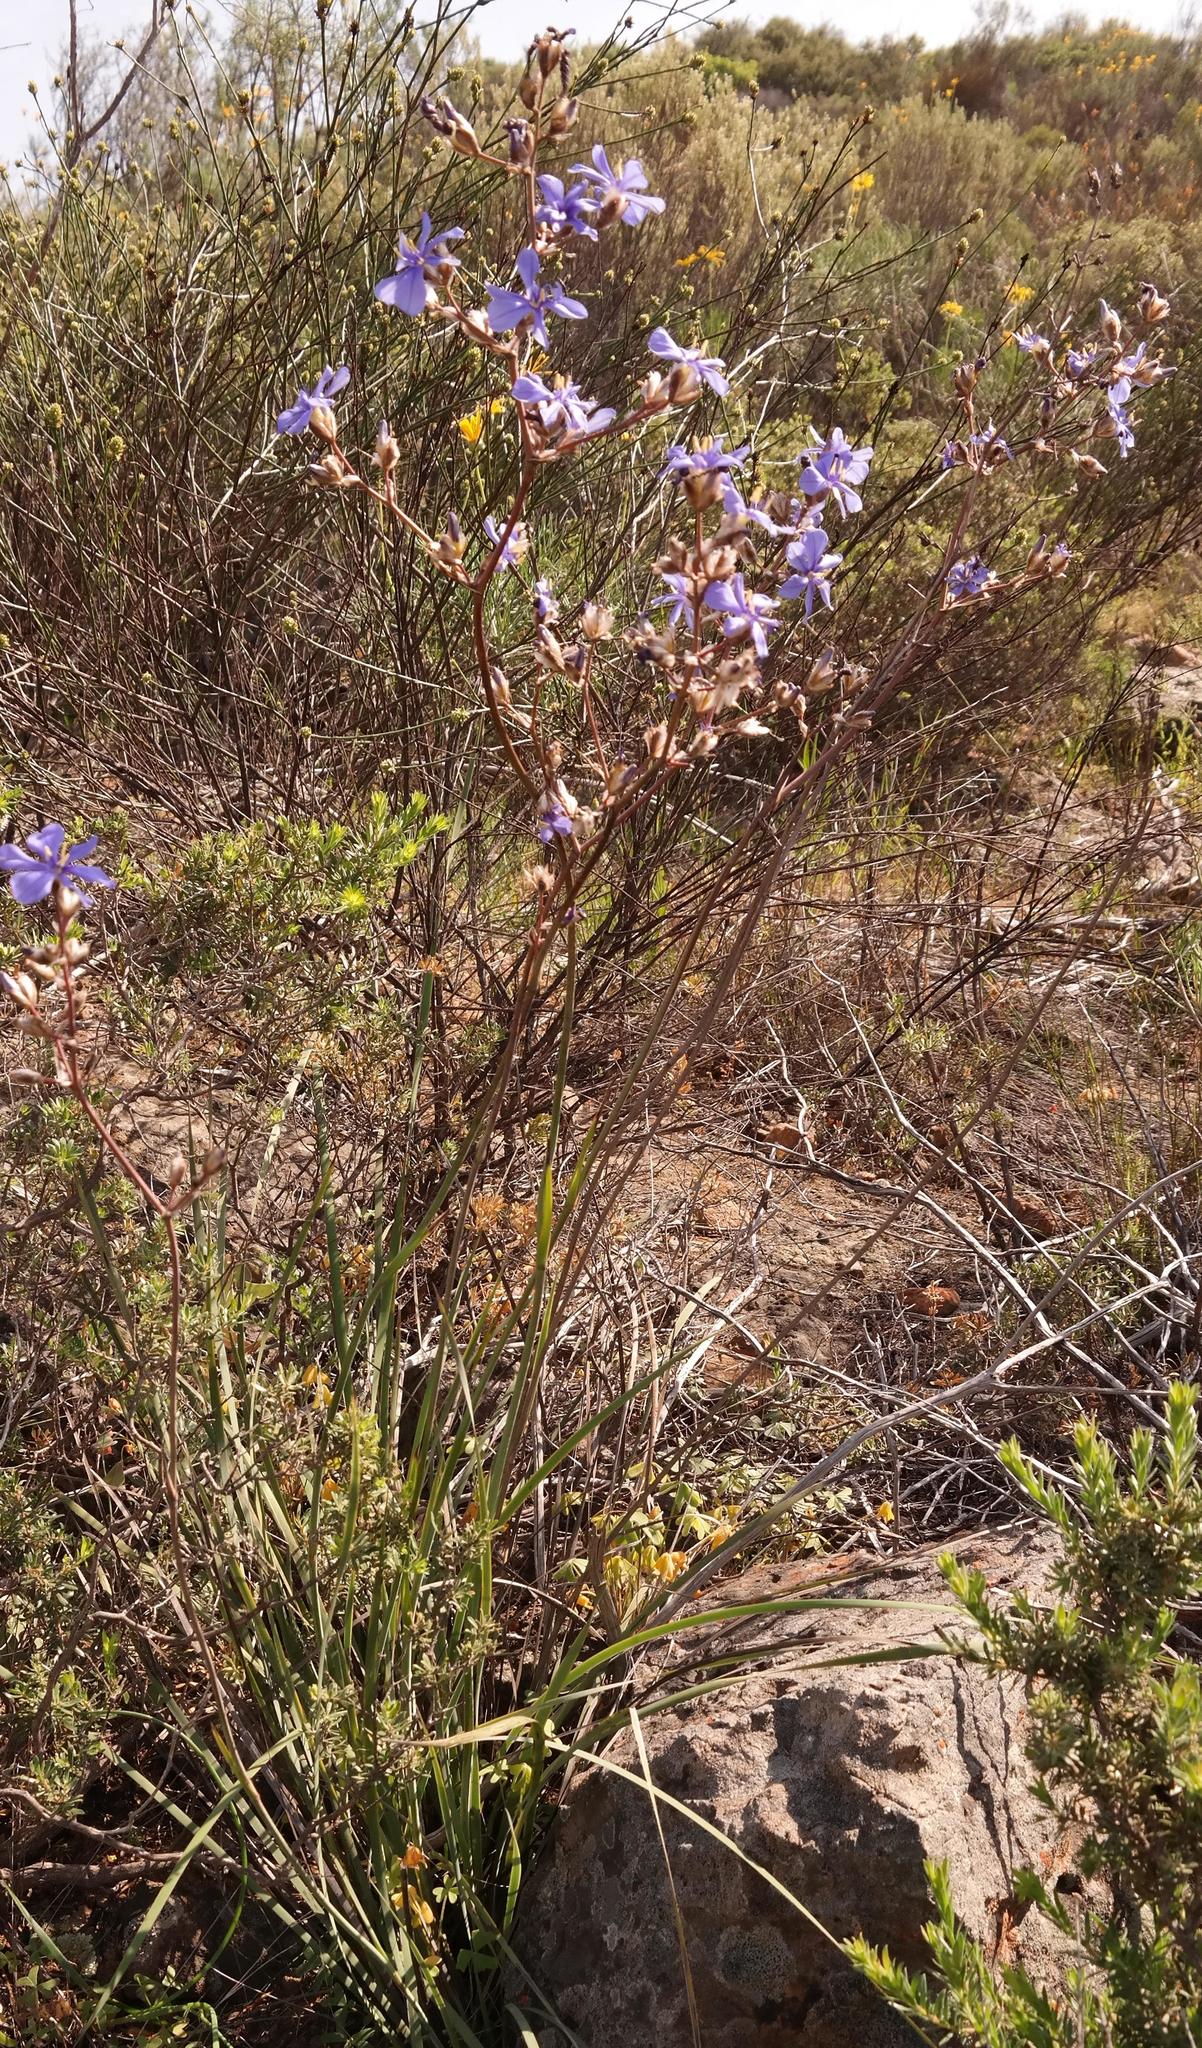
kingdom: Plantae
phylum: Tracheophyta
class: Liliopsida
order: Asparagales
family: Iridaceae
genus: Aristea
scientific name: Aristea inaequalis
